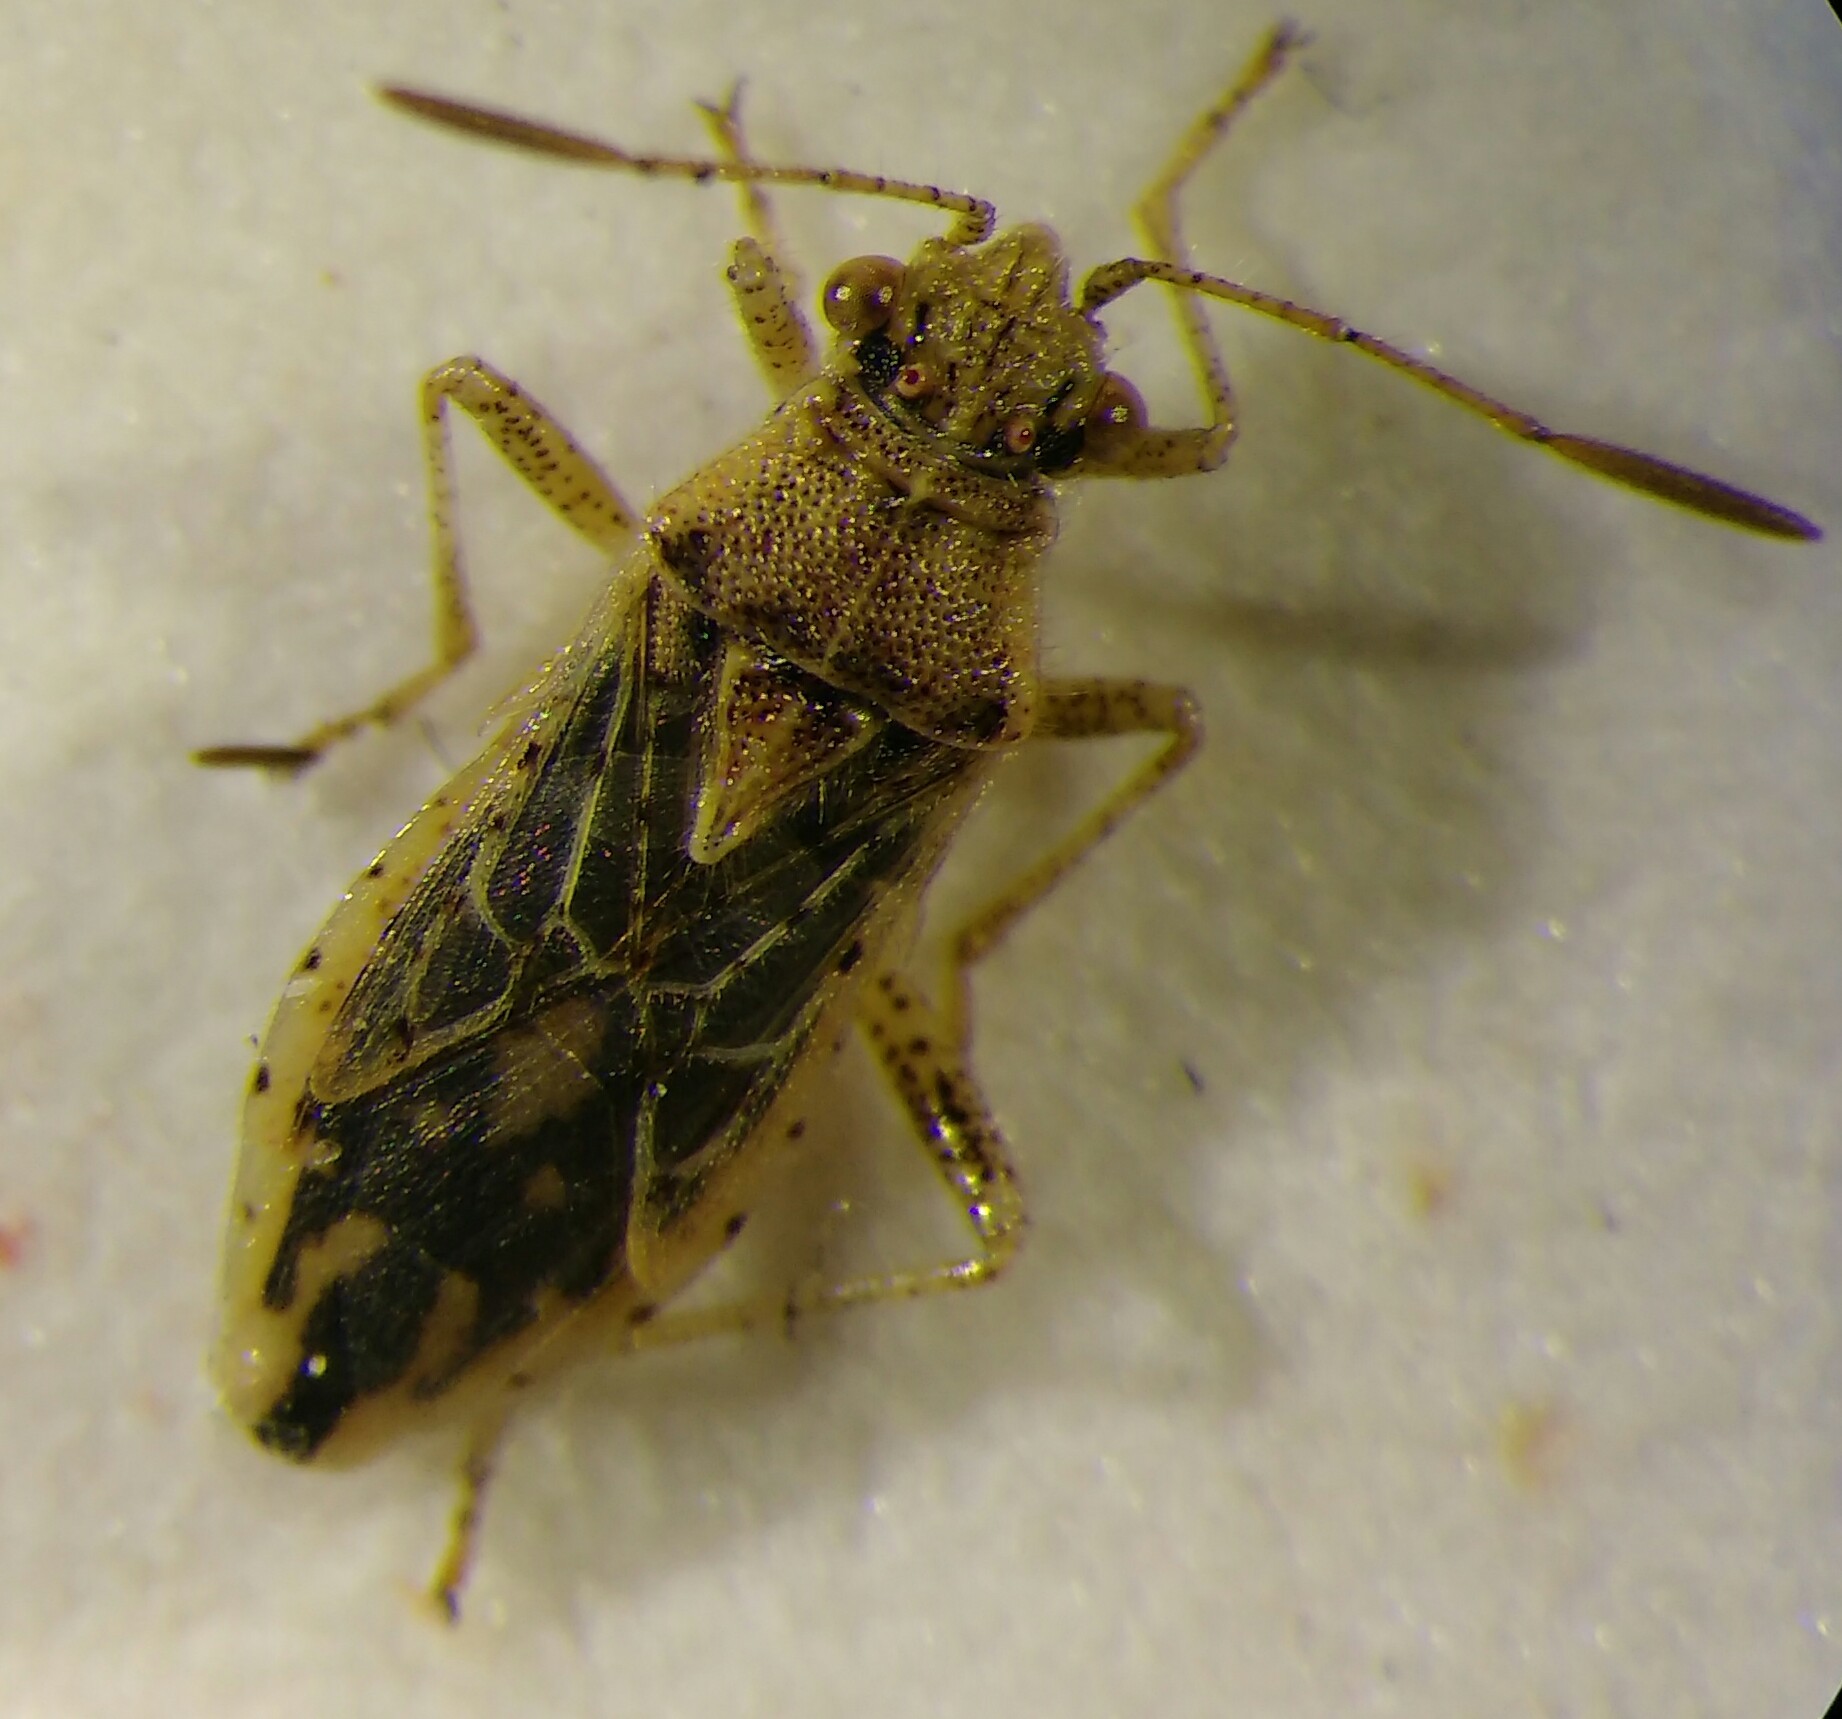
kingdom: Animalia
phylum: Arthropoda
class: Insecta
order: Hemiptera
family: Rhopalidae
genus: Rhopalus
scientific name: Rhopalus parumpunctatus
